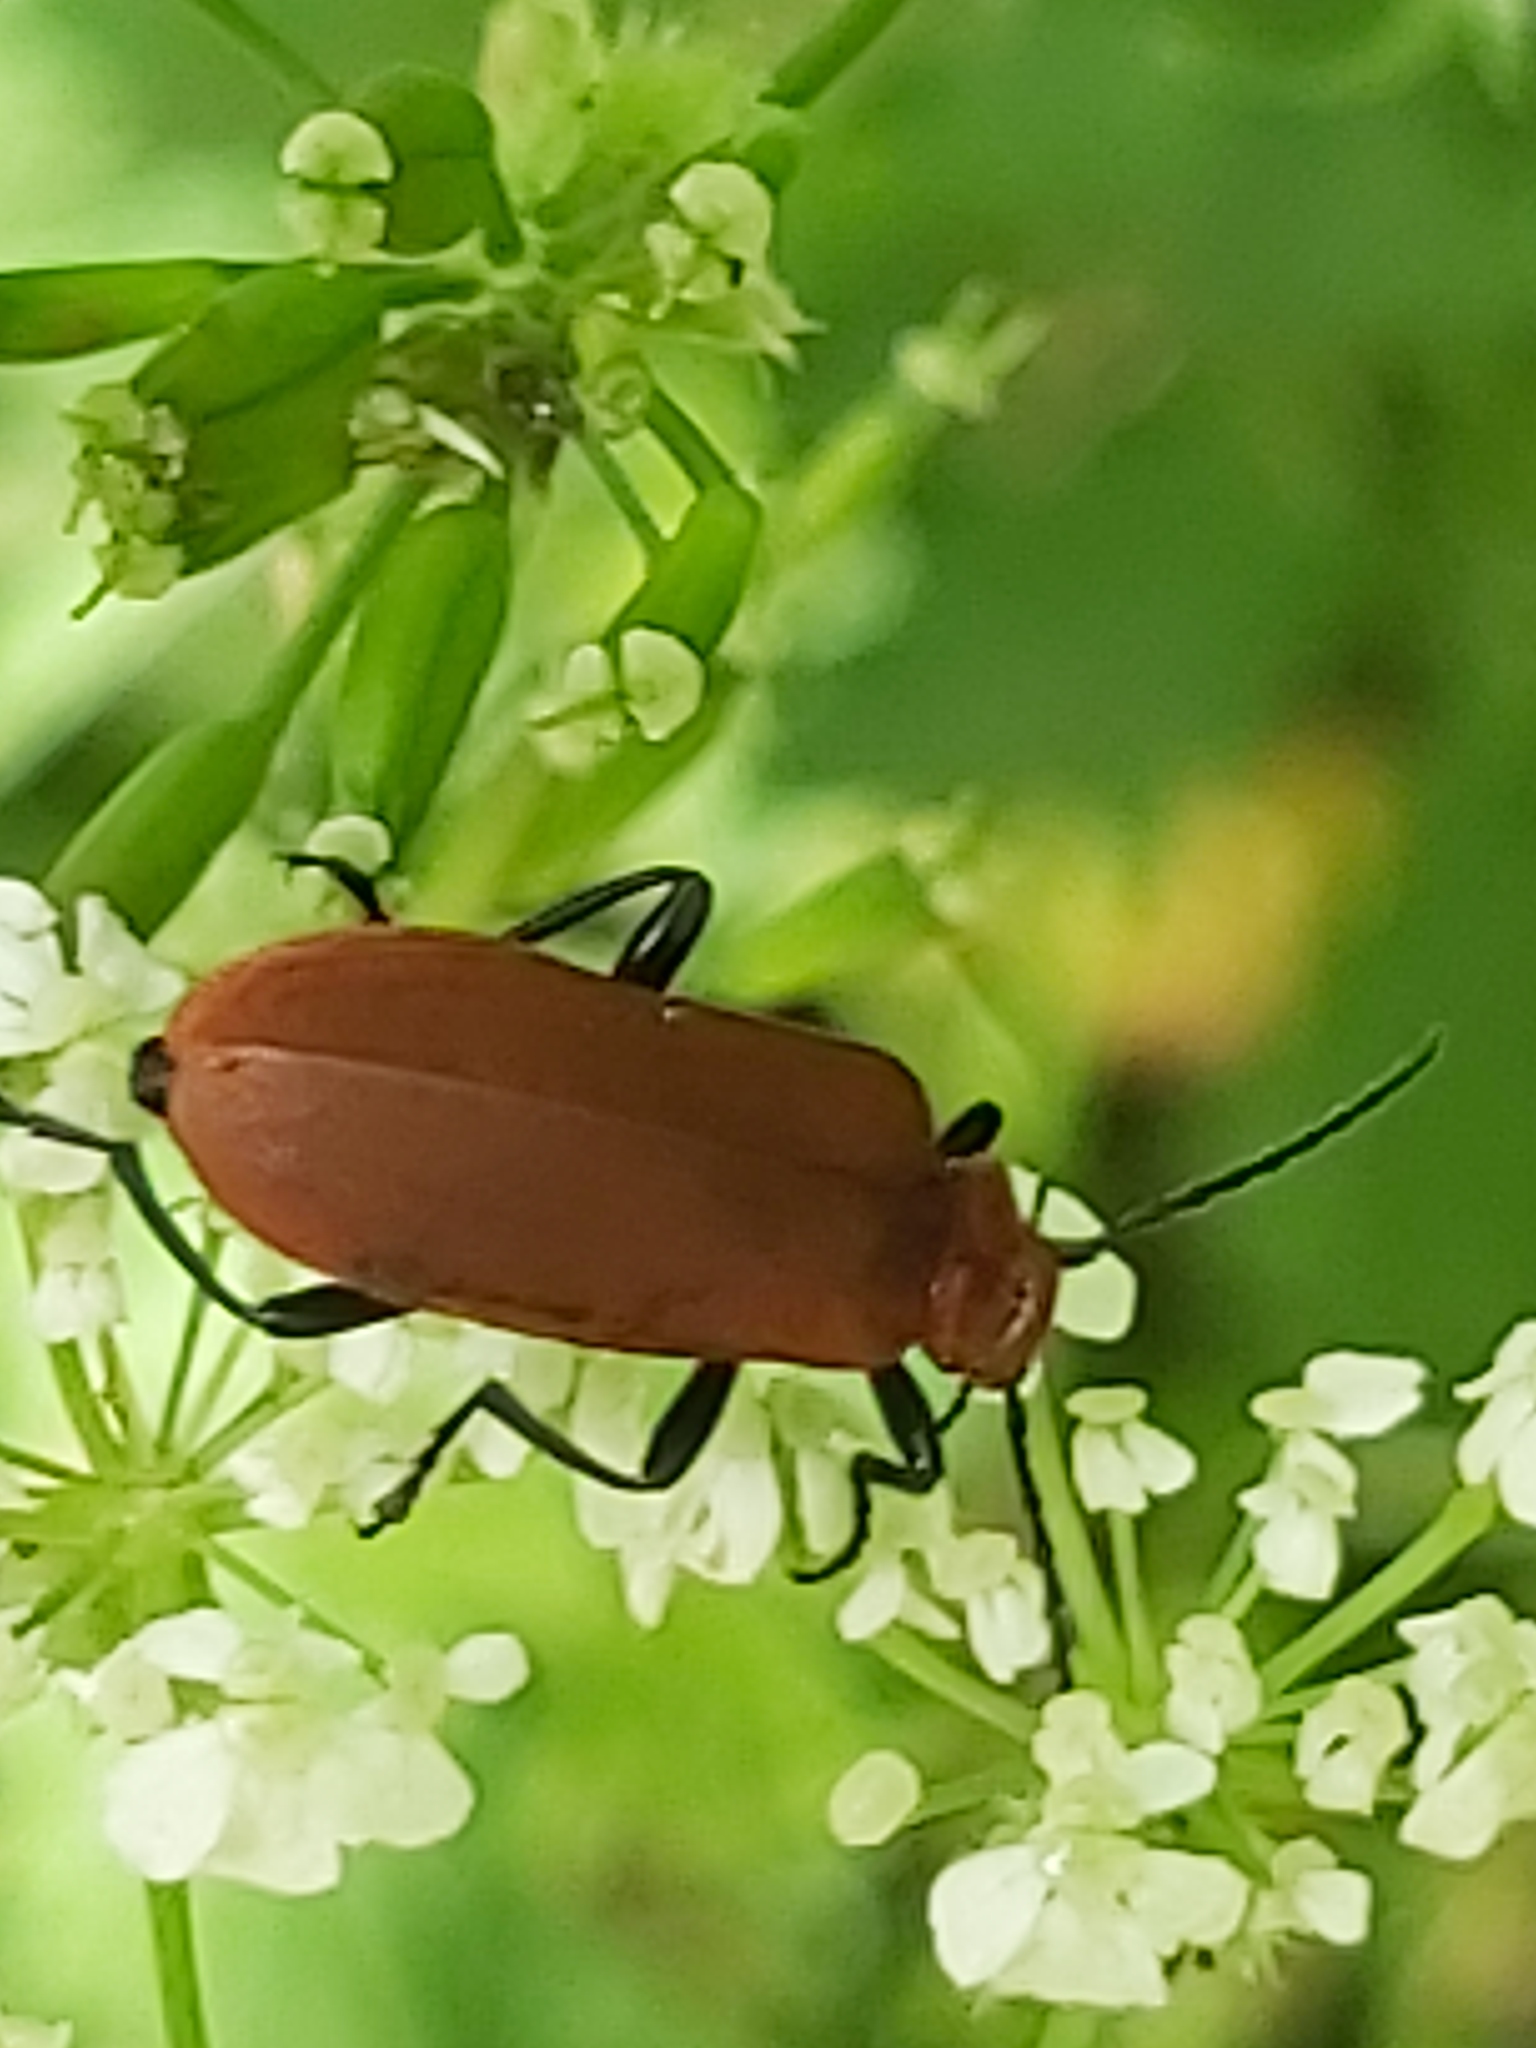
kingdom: Animalia
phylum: Arthropoda
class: Insecta
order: Coleoptera
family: Pyrochroidae
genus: Pyrochroa
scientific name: Pyrochroa serraticornis
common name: Red-headed cardinal beetle
